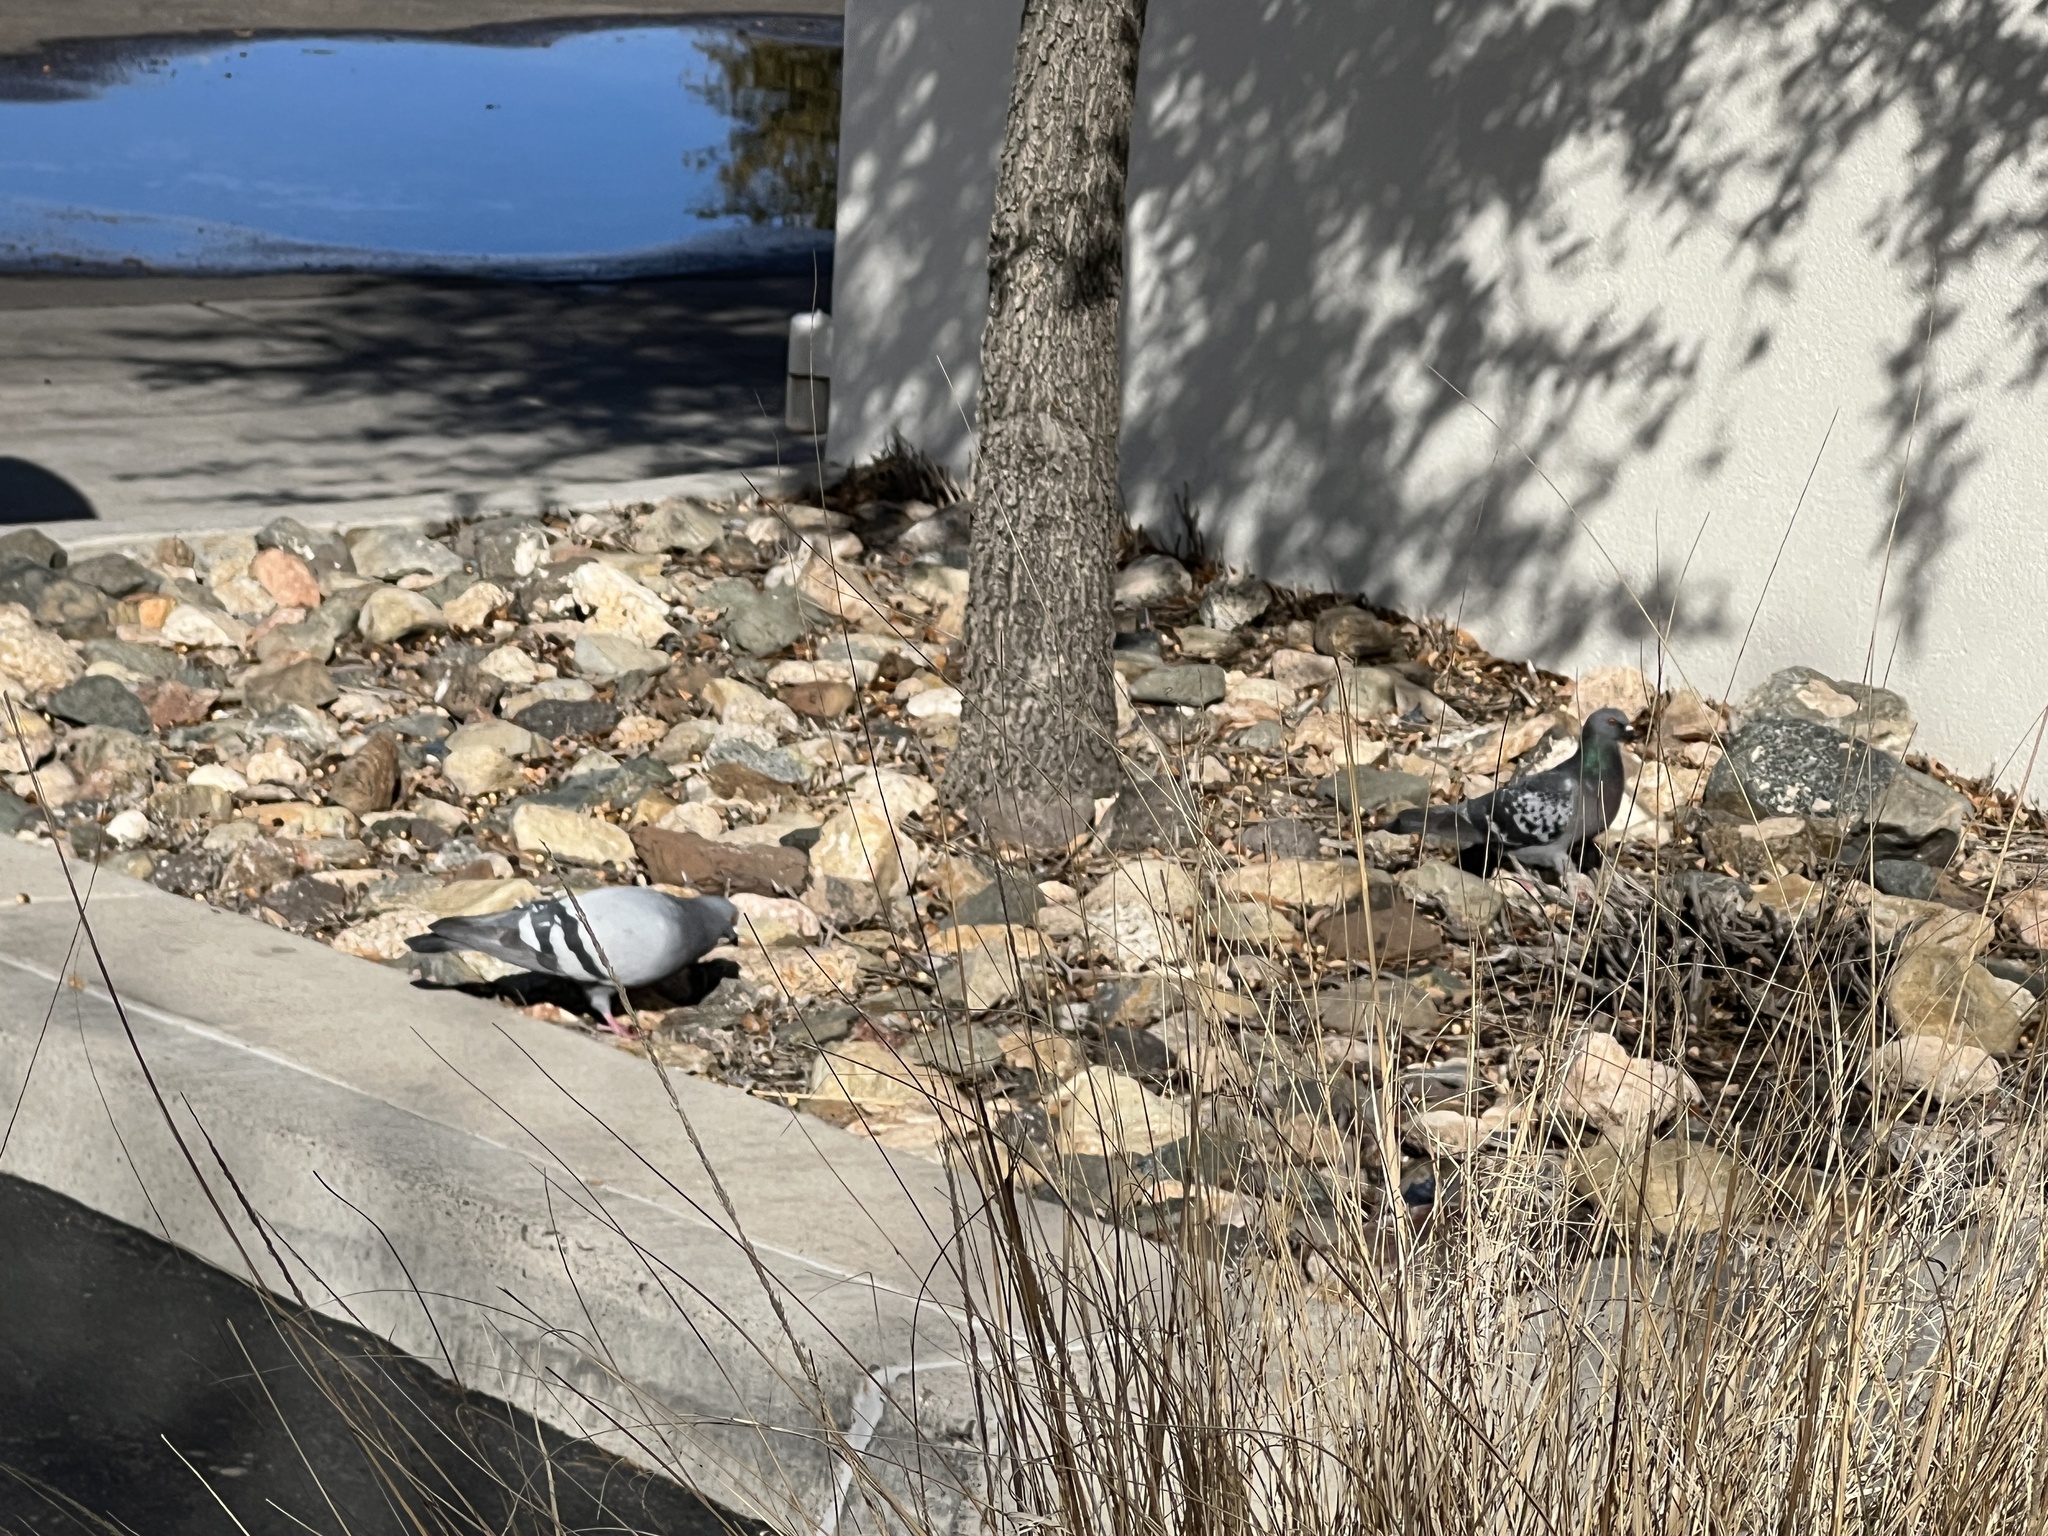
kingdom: Animalia
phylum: Chordata
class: Aves
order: Columbiformes
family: Columbidae
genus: Columba
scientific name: Columba livia
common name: Rock pigeon
